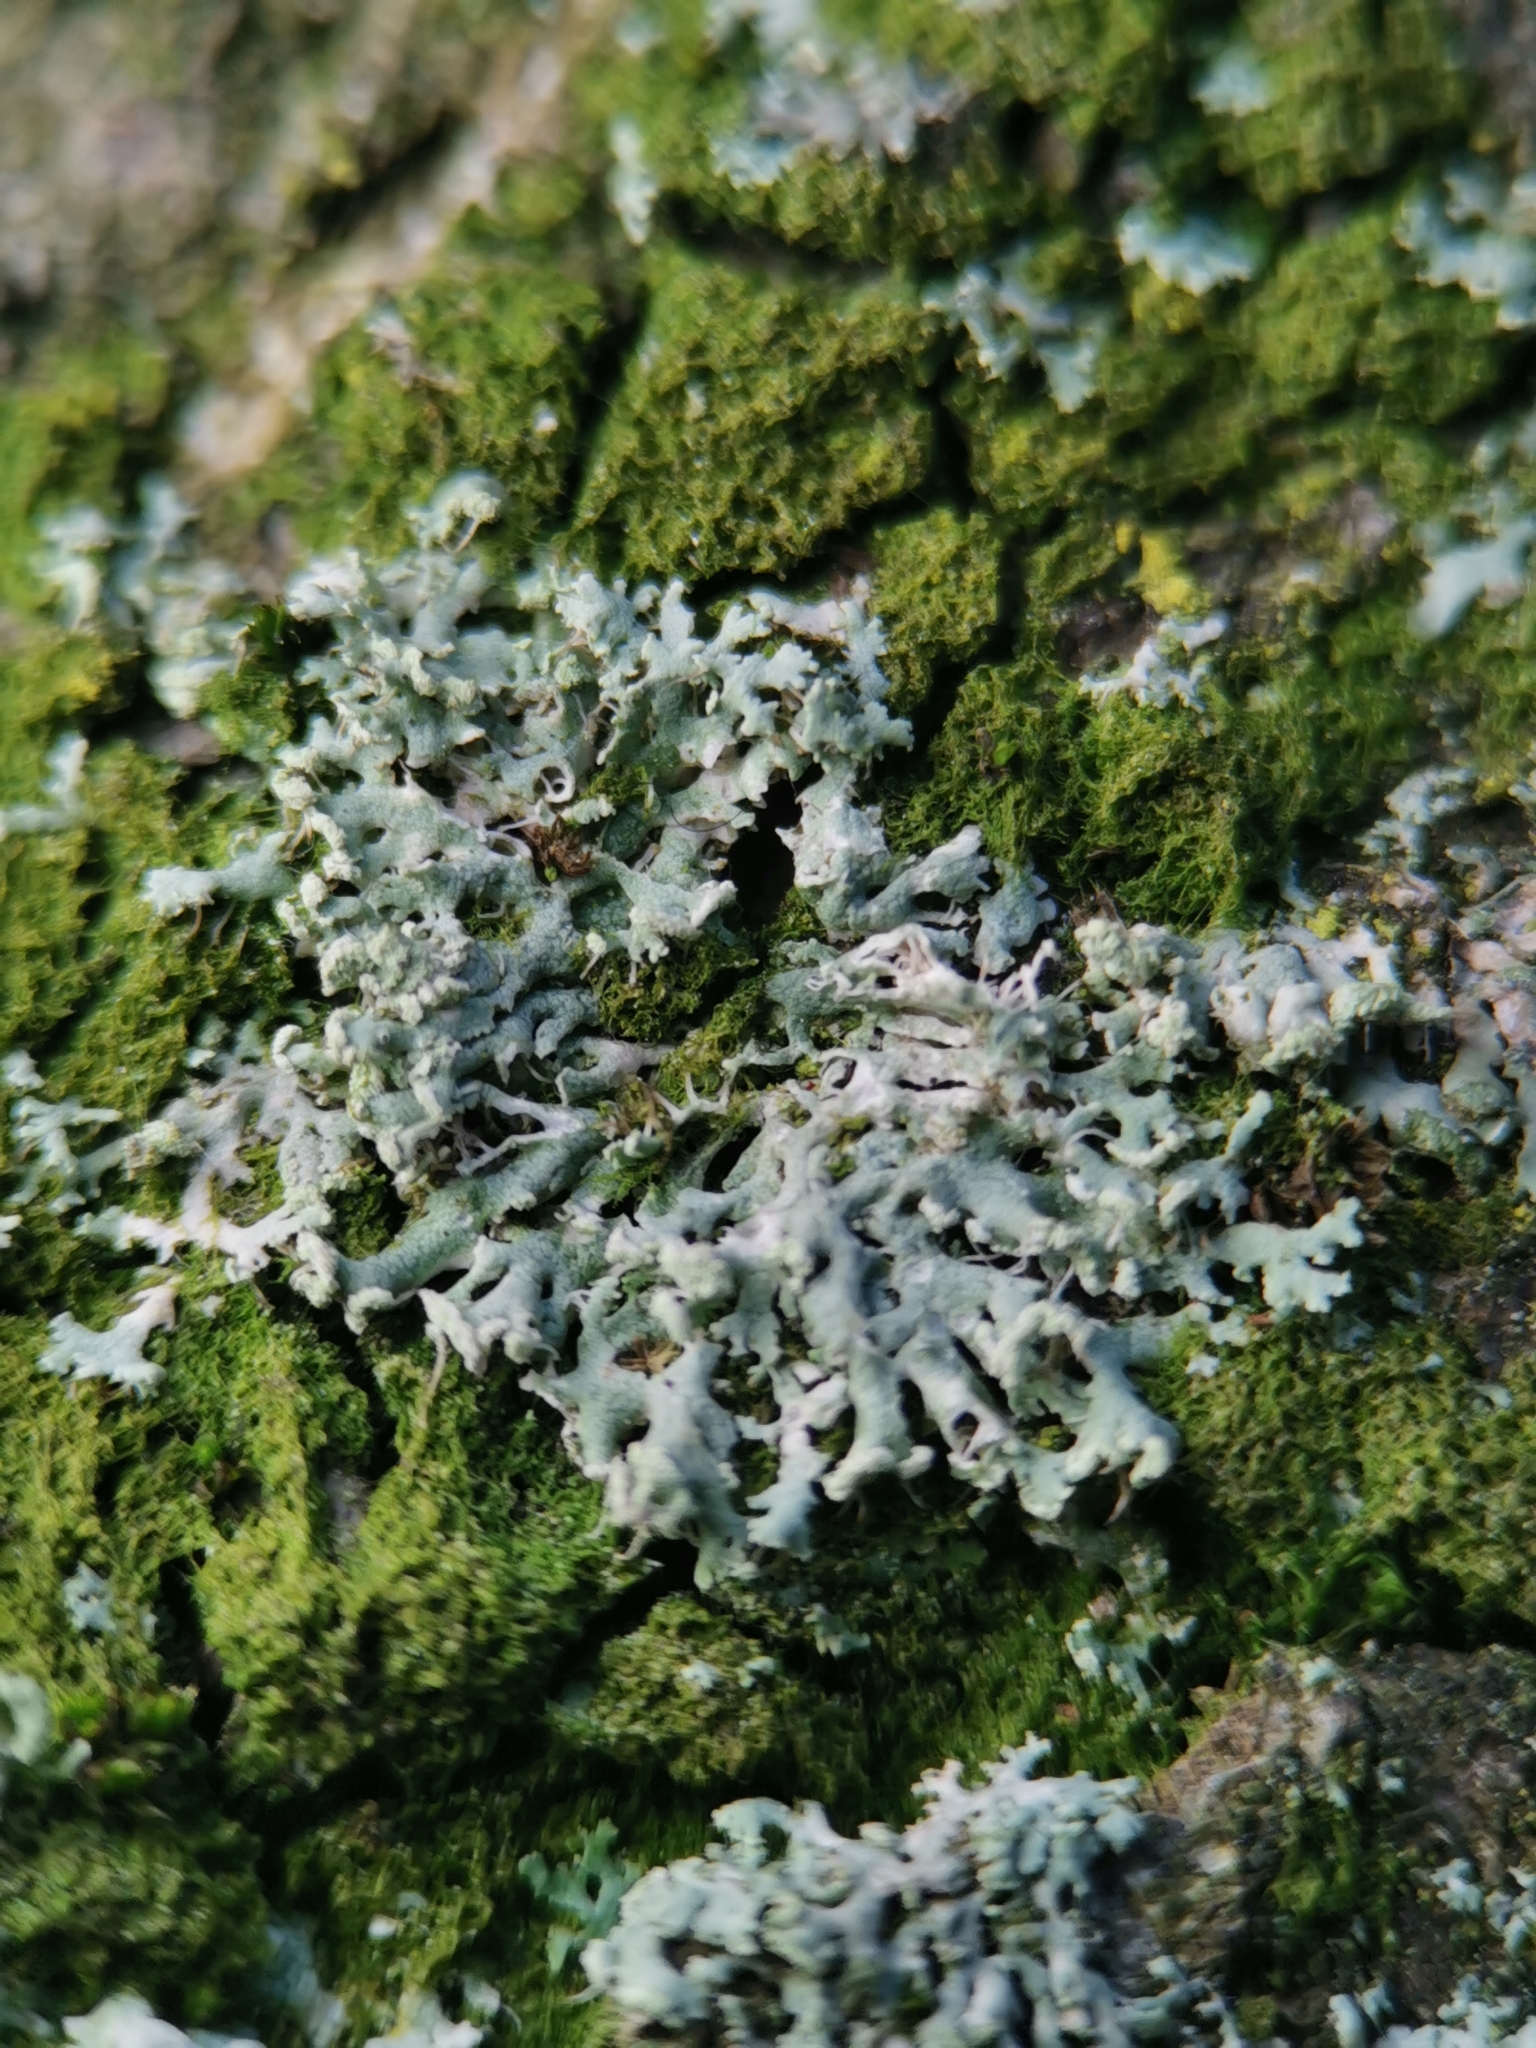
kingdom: Fungi
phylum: Ascomycota
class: Lecanoromycetes
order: Caliciales
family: Physciaceae
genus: Physcia
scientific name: Physcia tenella
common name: Fringed rosette lichen
